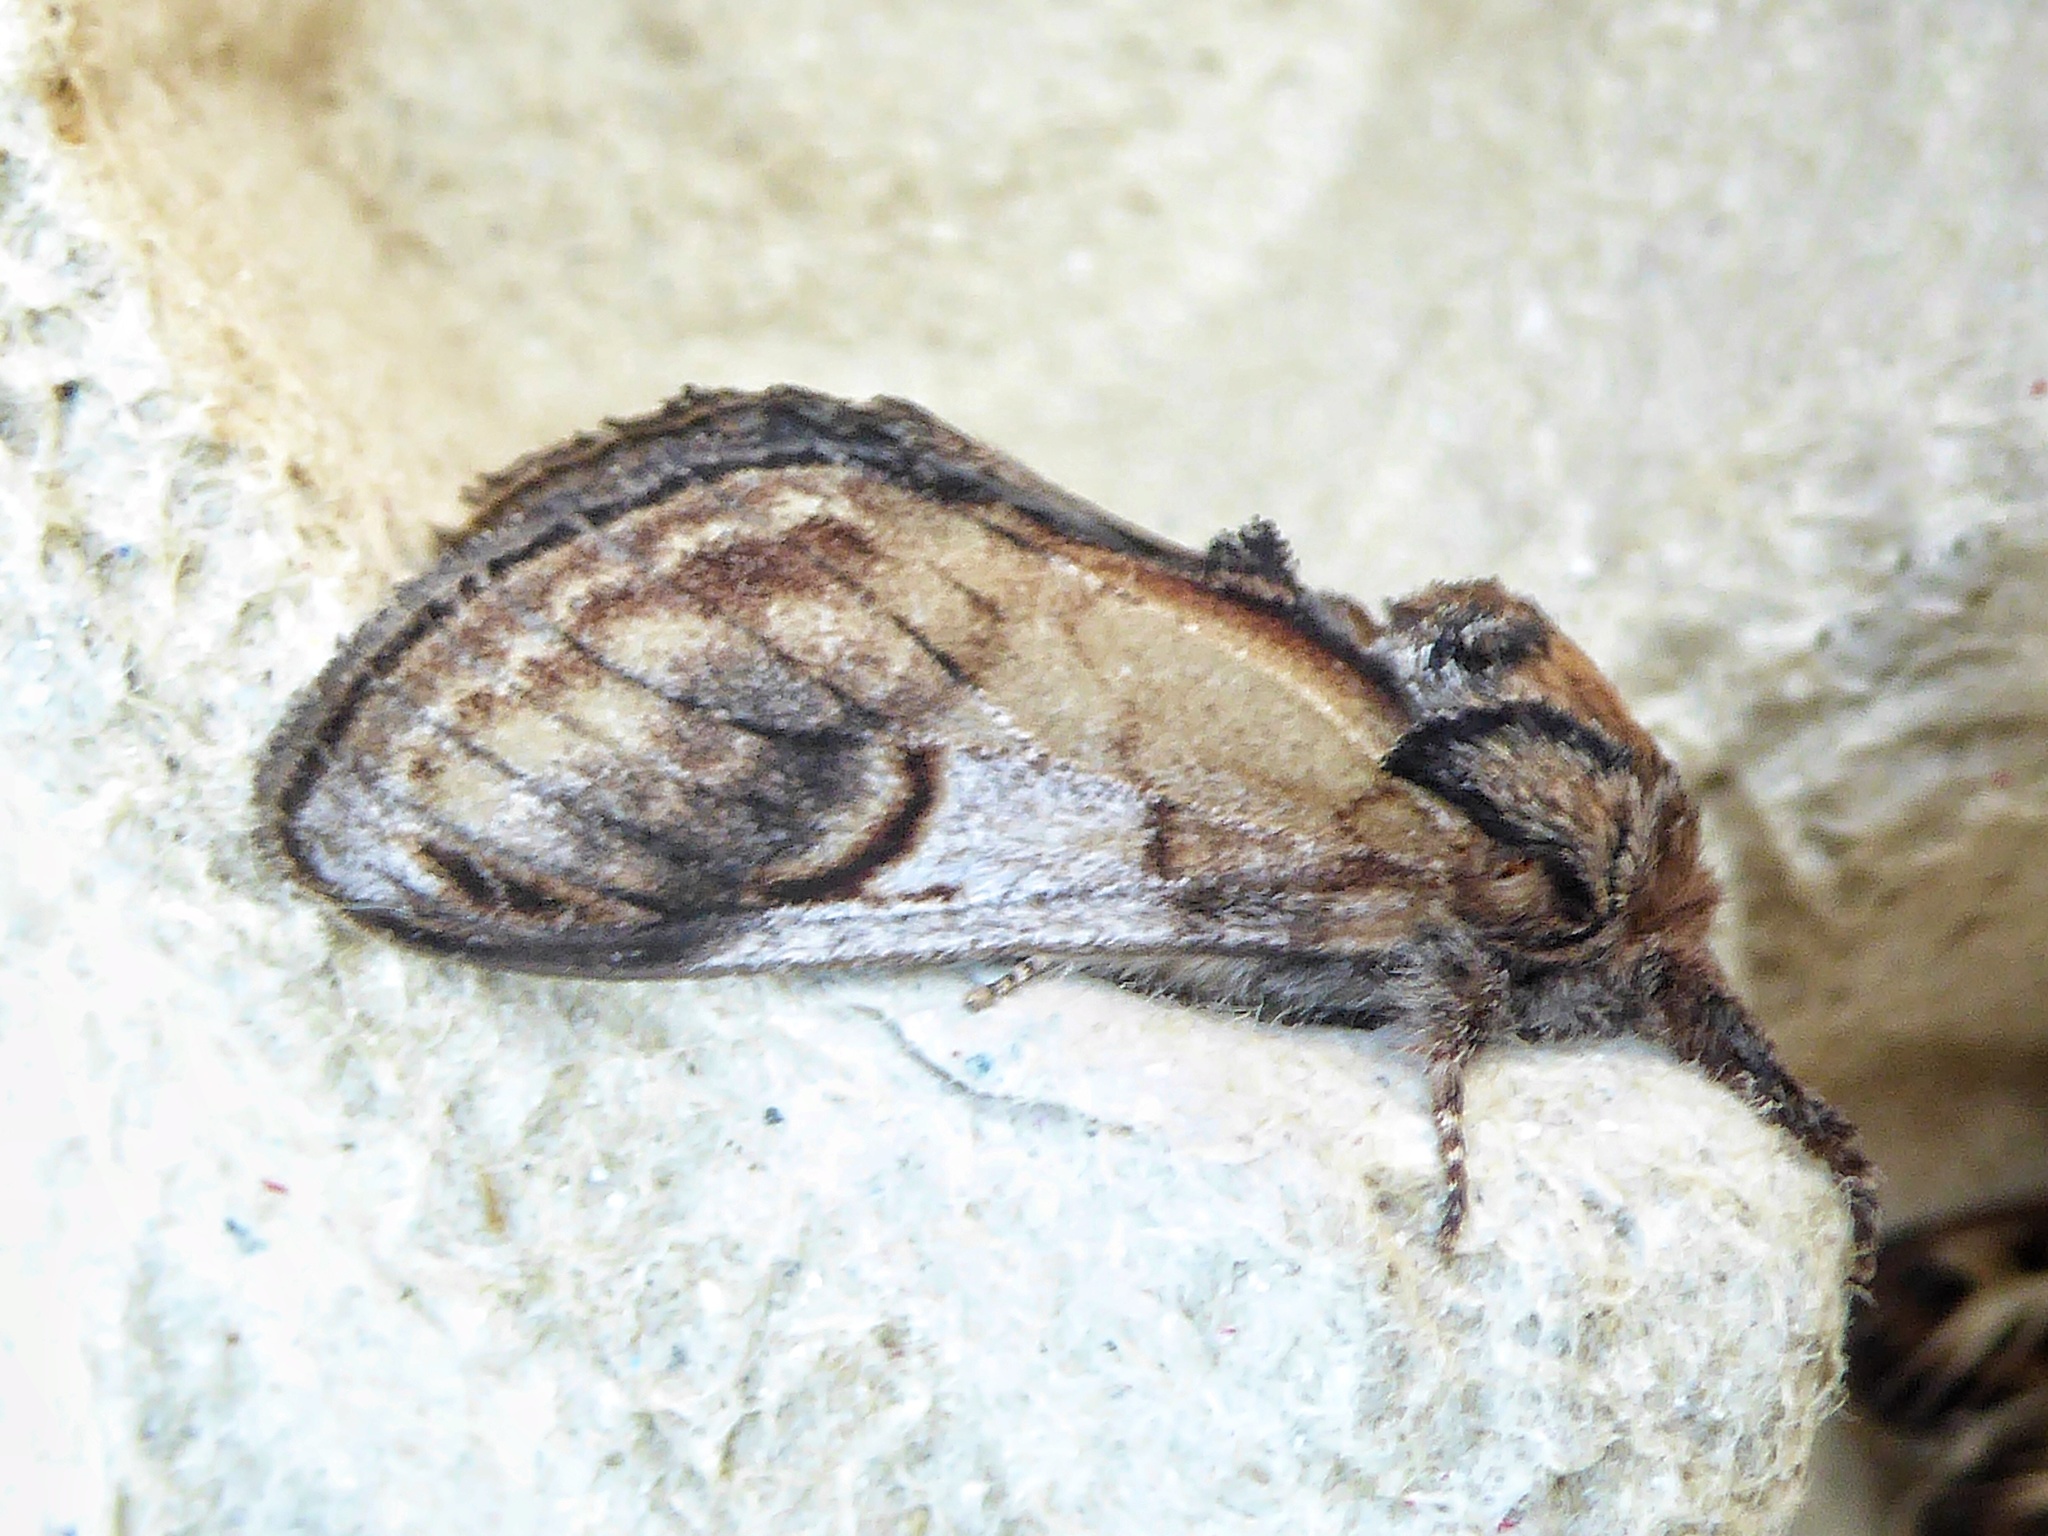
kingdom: Animalia
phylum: Arthropoda
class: Insecta
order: Lepidoptera
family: Notodontidae
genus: Notodonta
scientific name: Notodonta ziczac
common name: Pebble prominent
